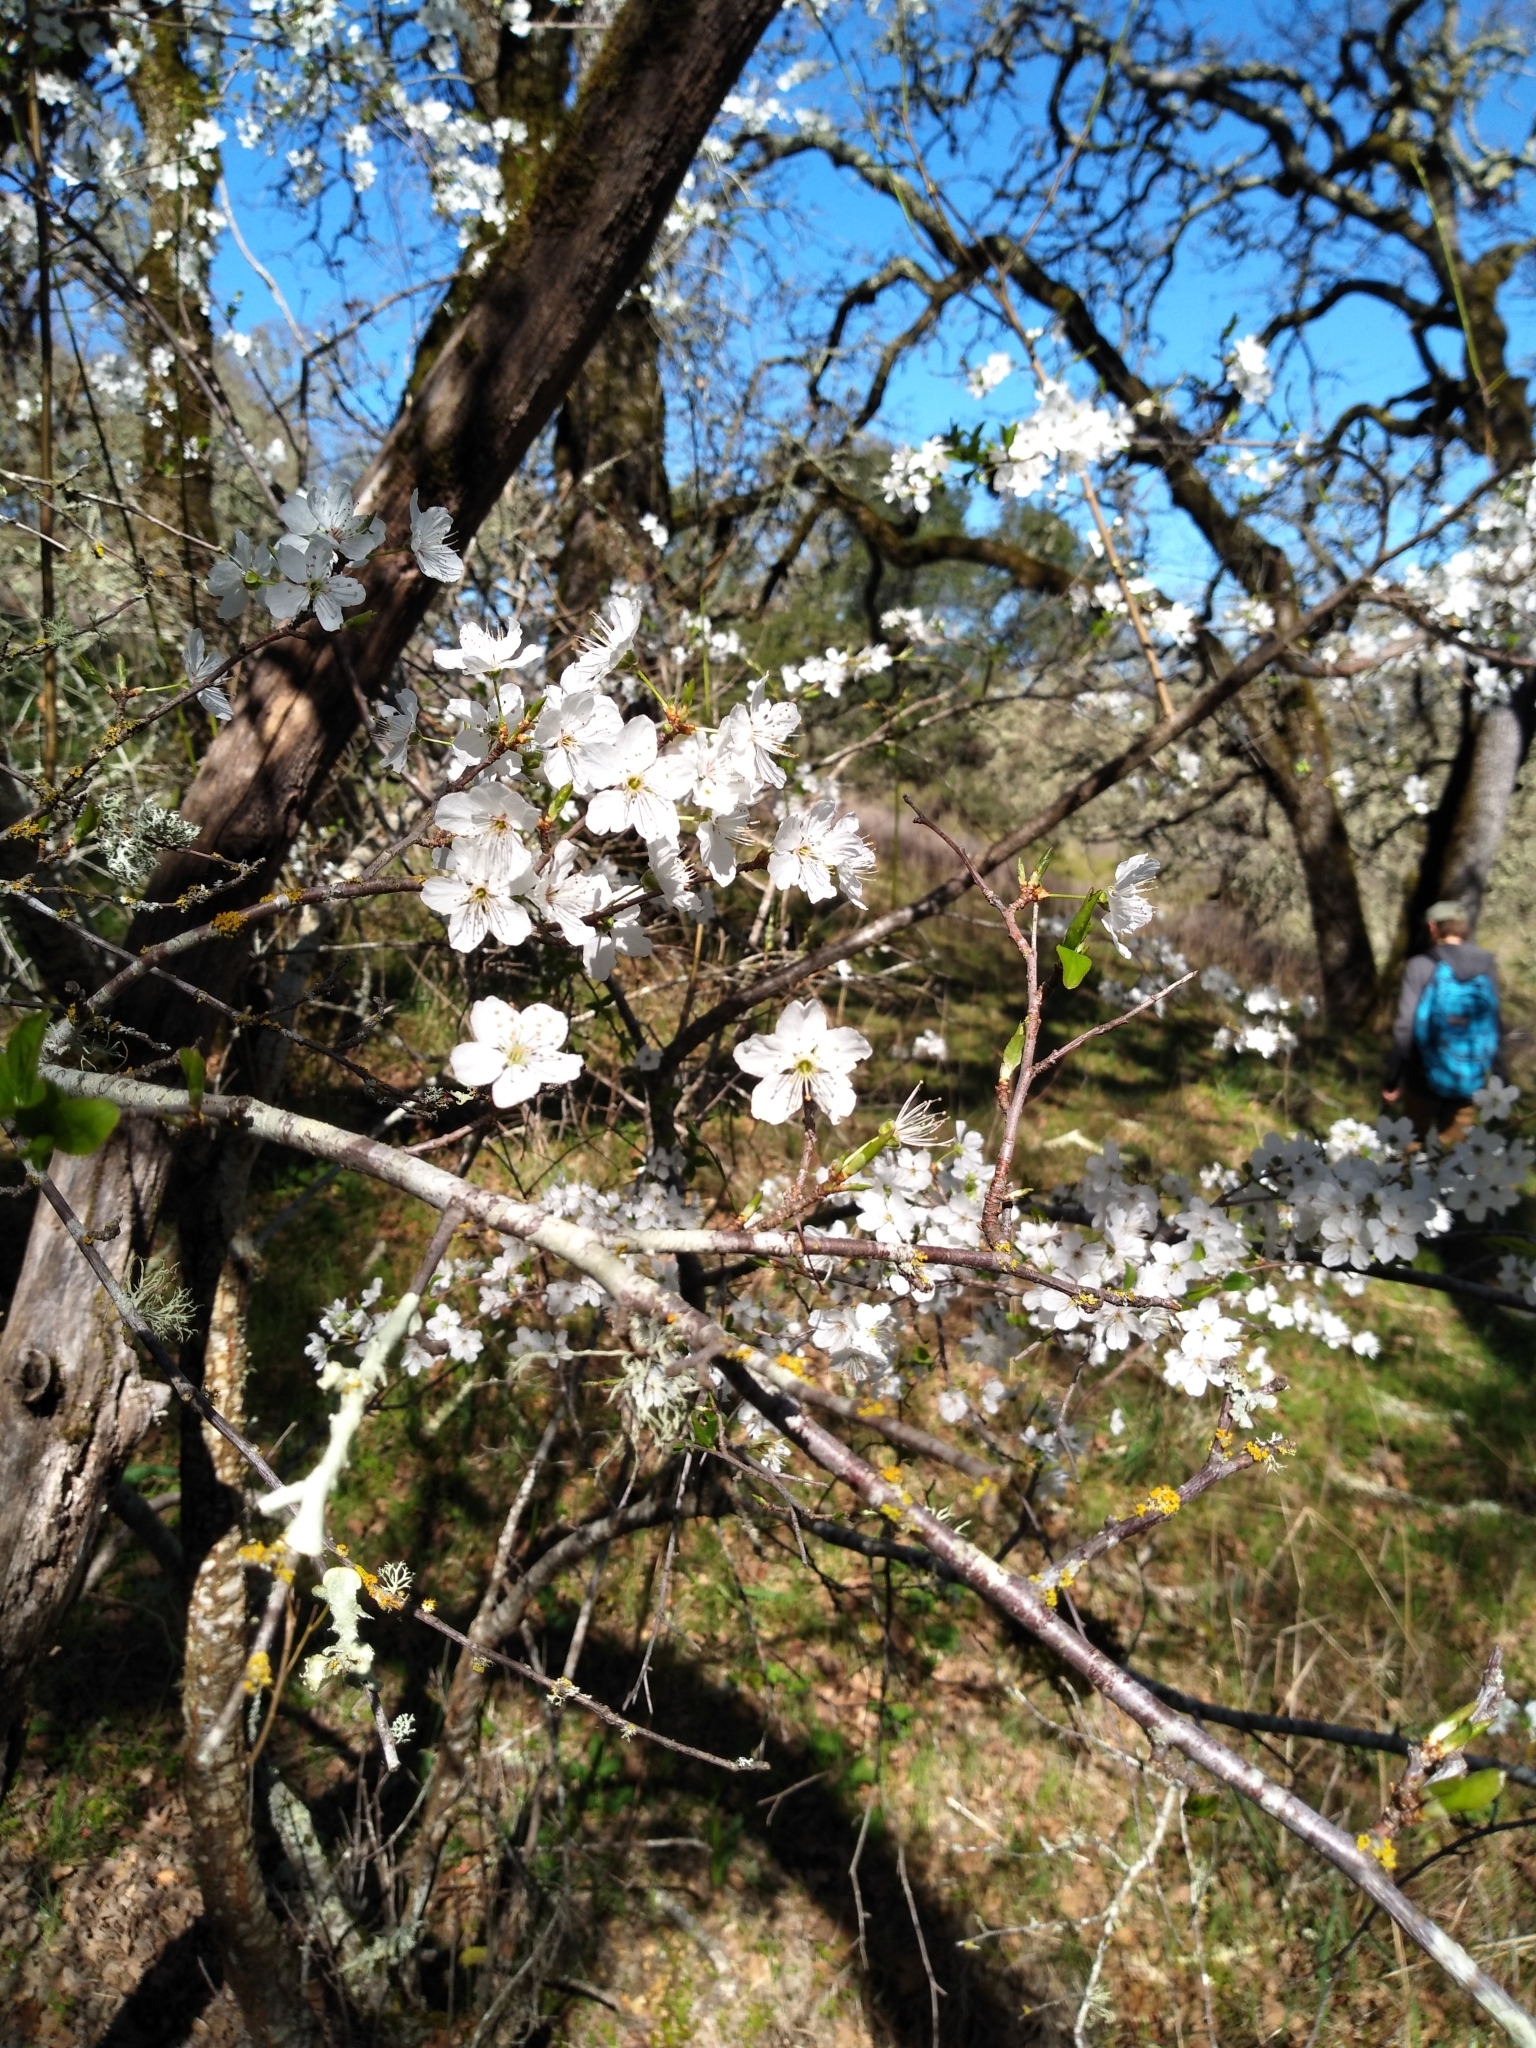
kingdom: Plantae
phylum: Tracheophyta
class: Magnoliopsida
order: Rosales
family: Rosaceae
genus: Prunus
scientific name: Prunus cerasifera
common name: Cherry plum
